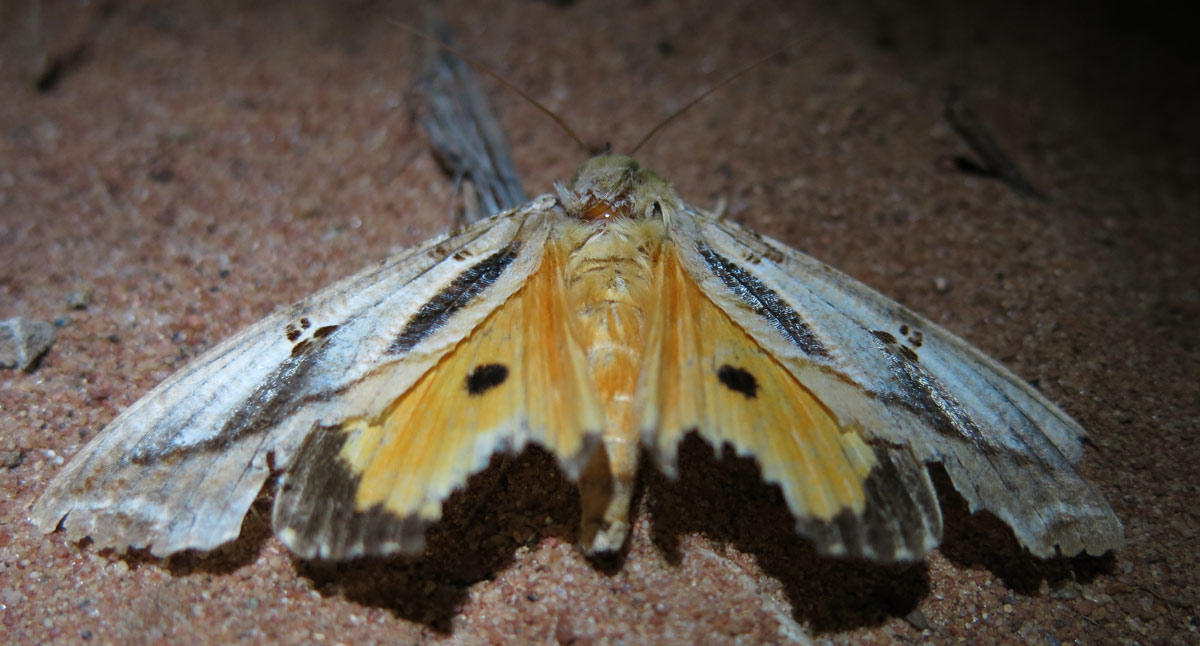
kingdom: Animalia
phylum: Arthropoda
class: Insecta
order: Lepidoptera
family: Erebidae
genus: Eudocima
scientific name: Eudocima materna
